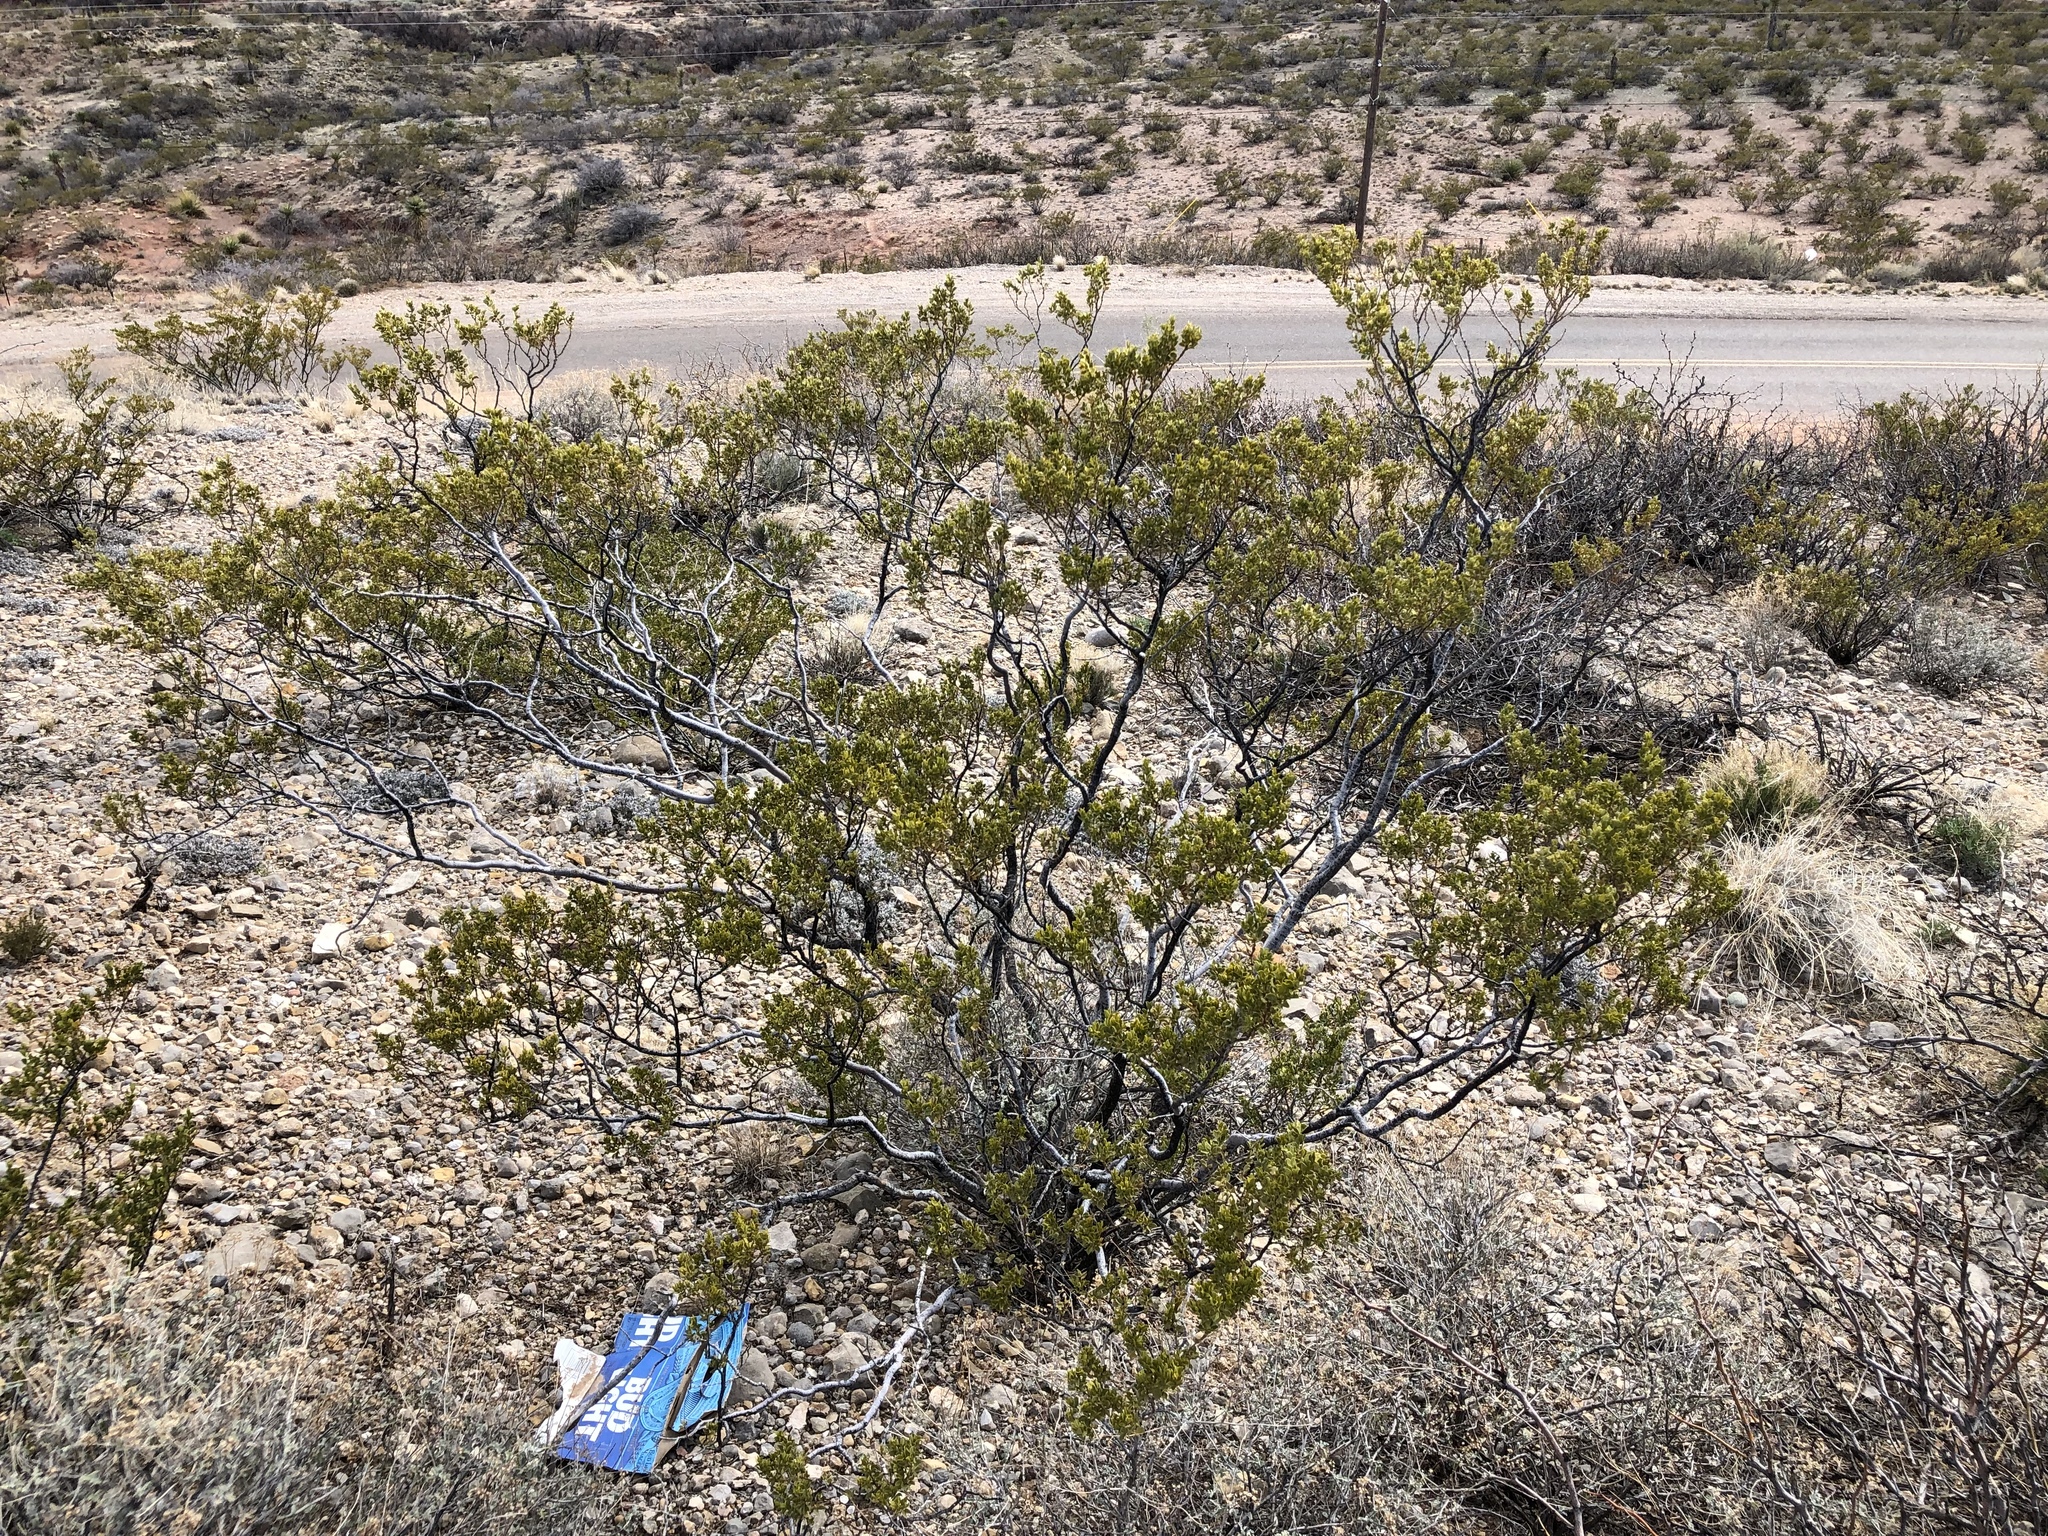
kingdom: Plantae
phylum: Tracheophyta
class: Magnoliopsida
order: Zygophyllales
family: Zygophyllaceae
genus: Larrea
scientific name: Larrea tridentata
